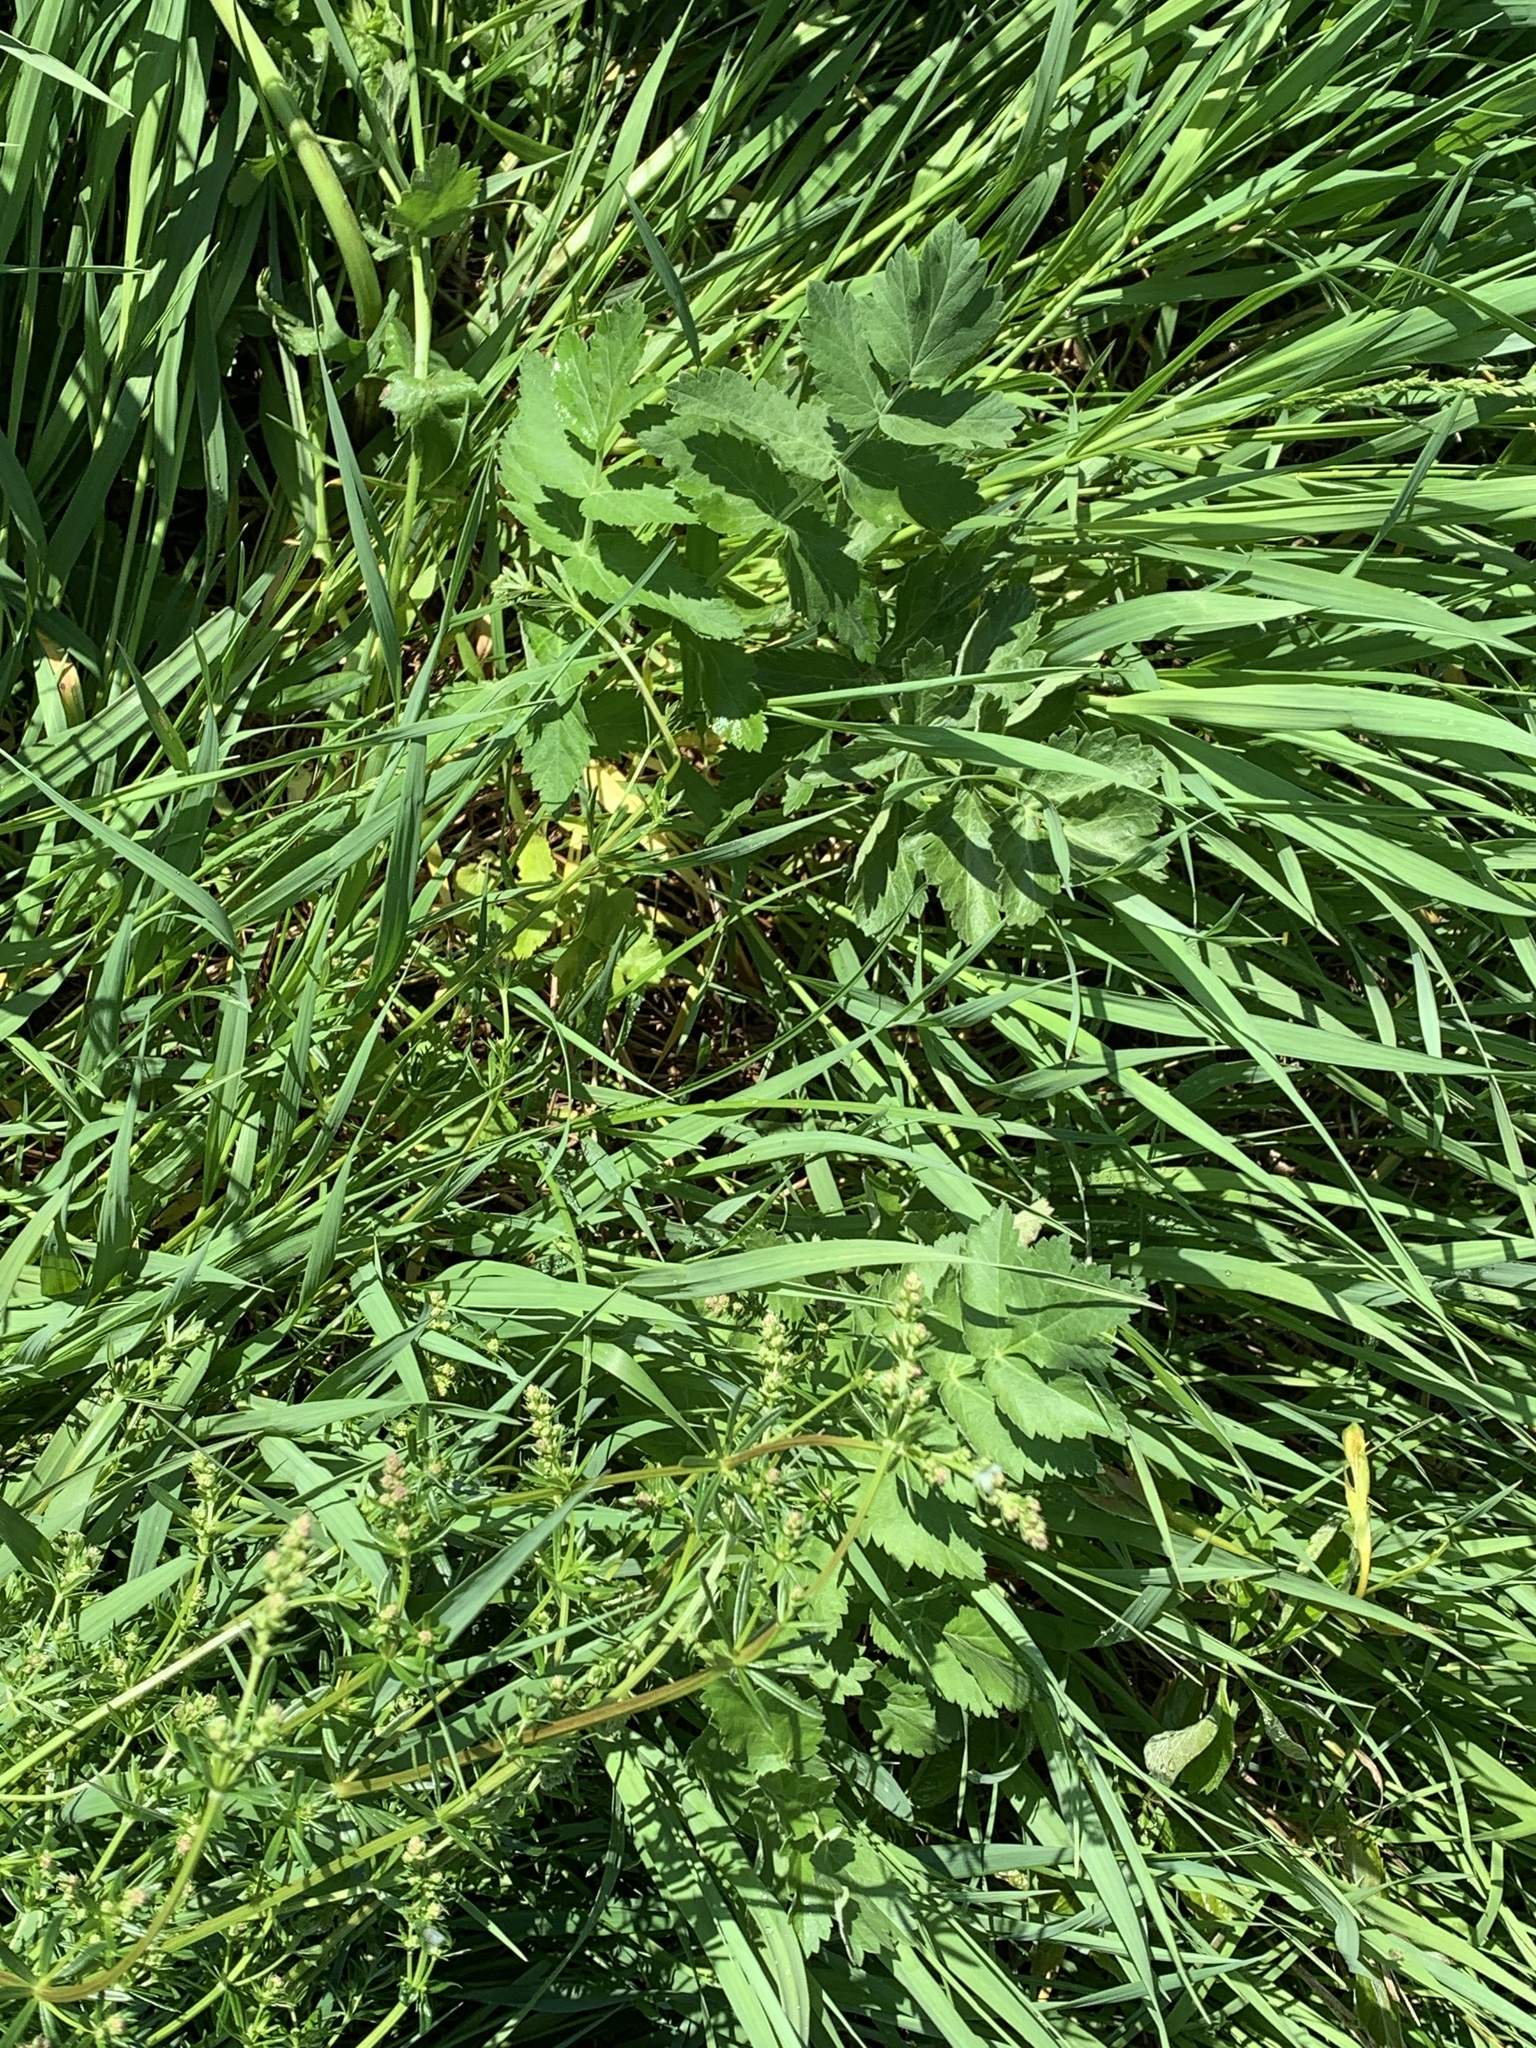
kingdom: Plantae
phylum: Tracheophyta
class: Magnoliopsida
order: Apiales
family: Apiaceae
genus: Pastinaca
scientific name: Pastinaca sativa
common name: Wild parsnip
